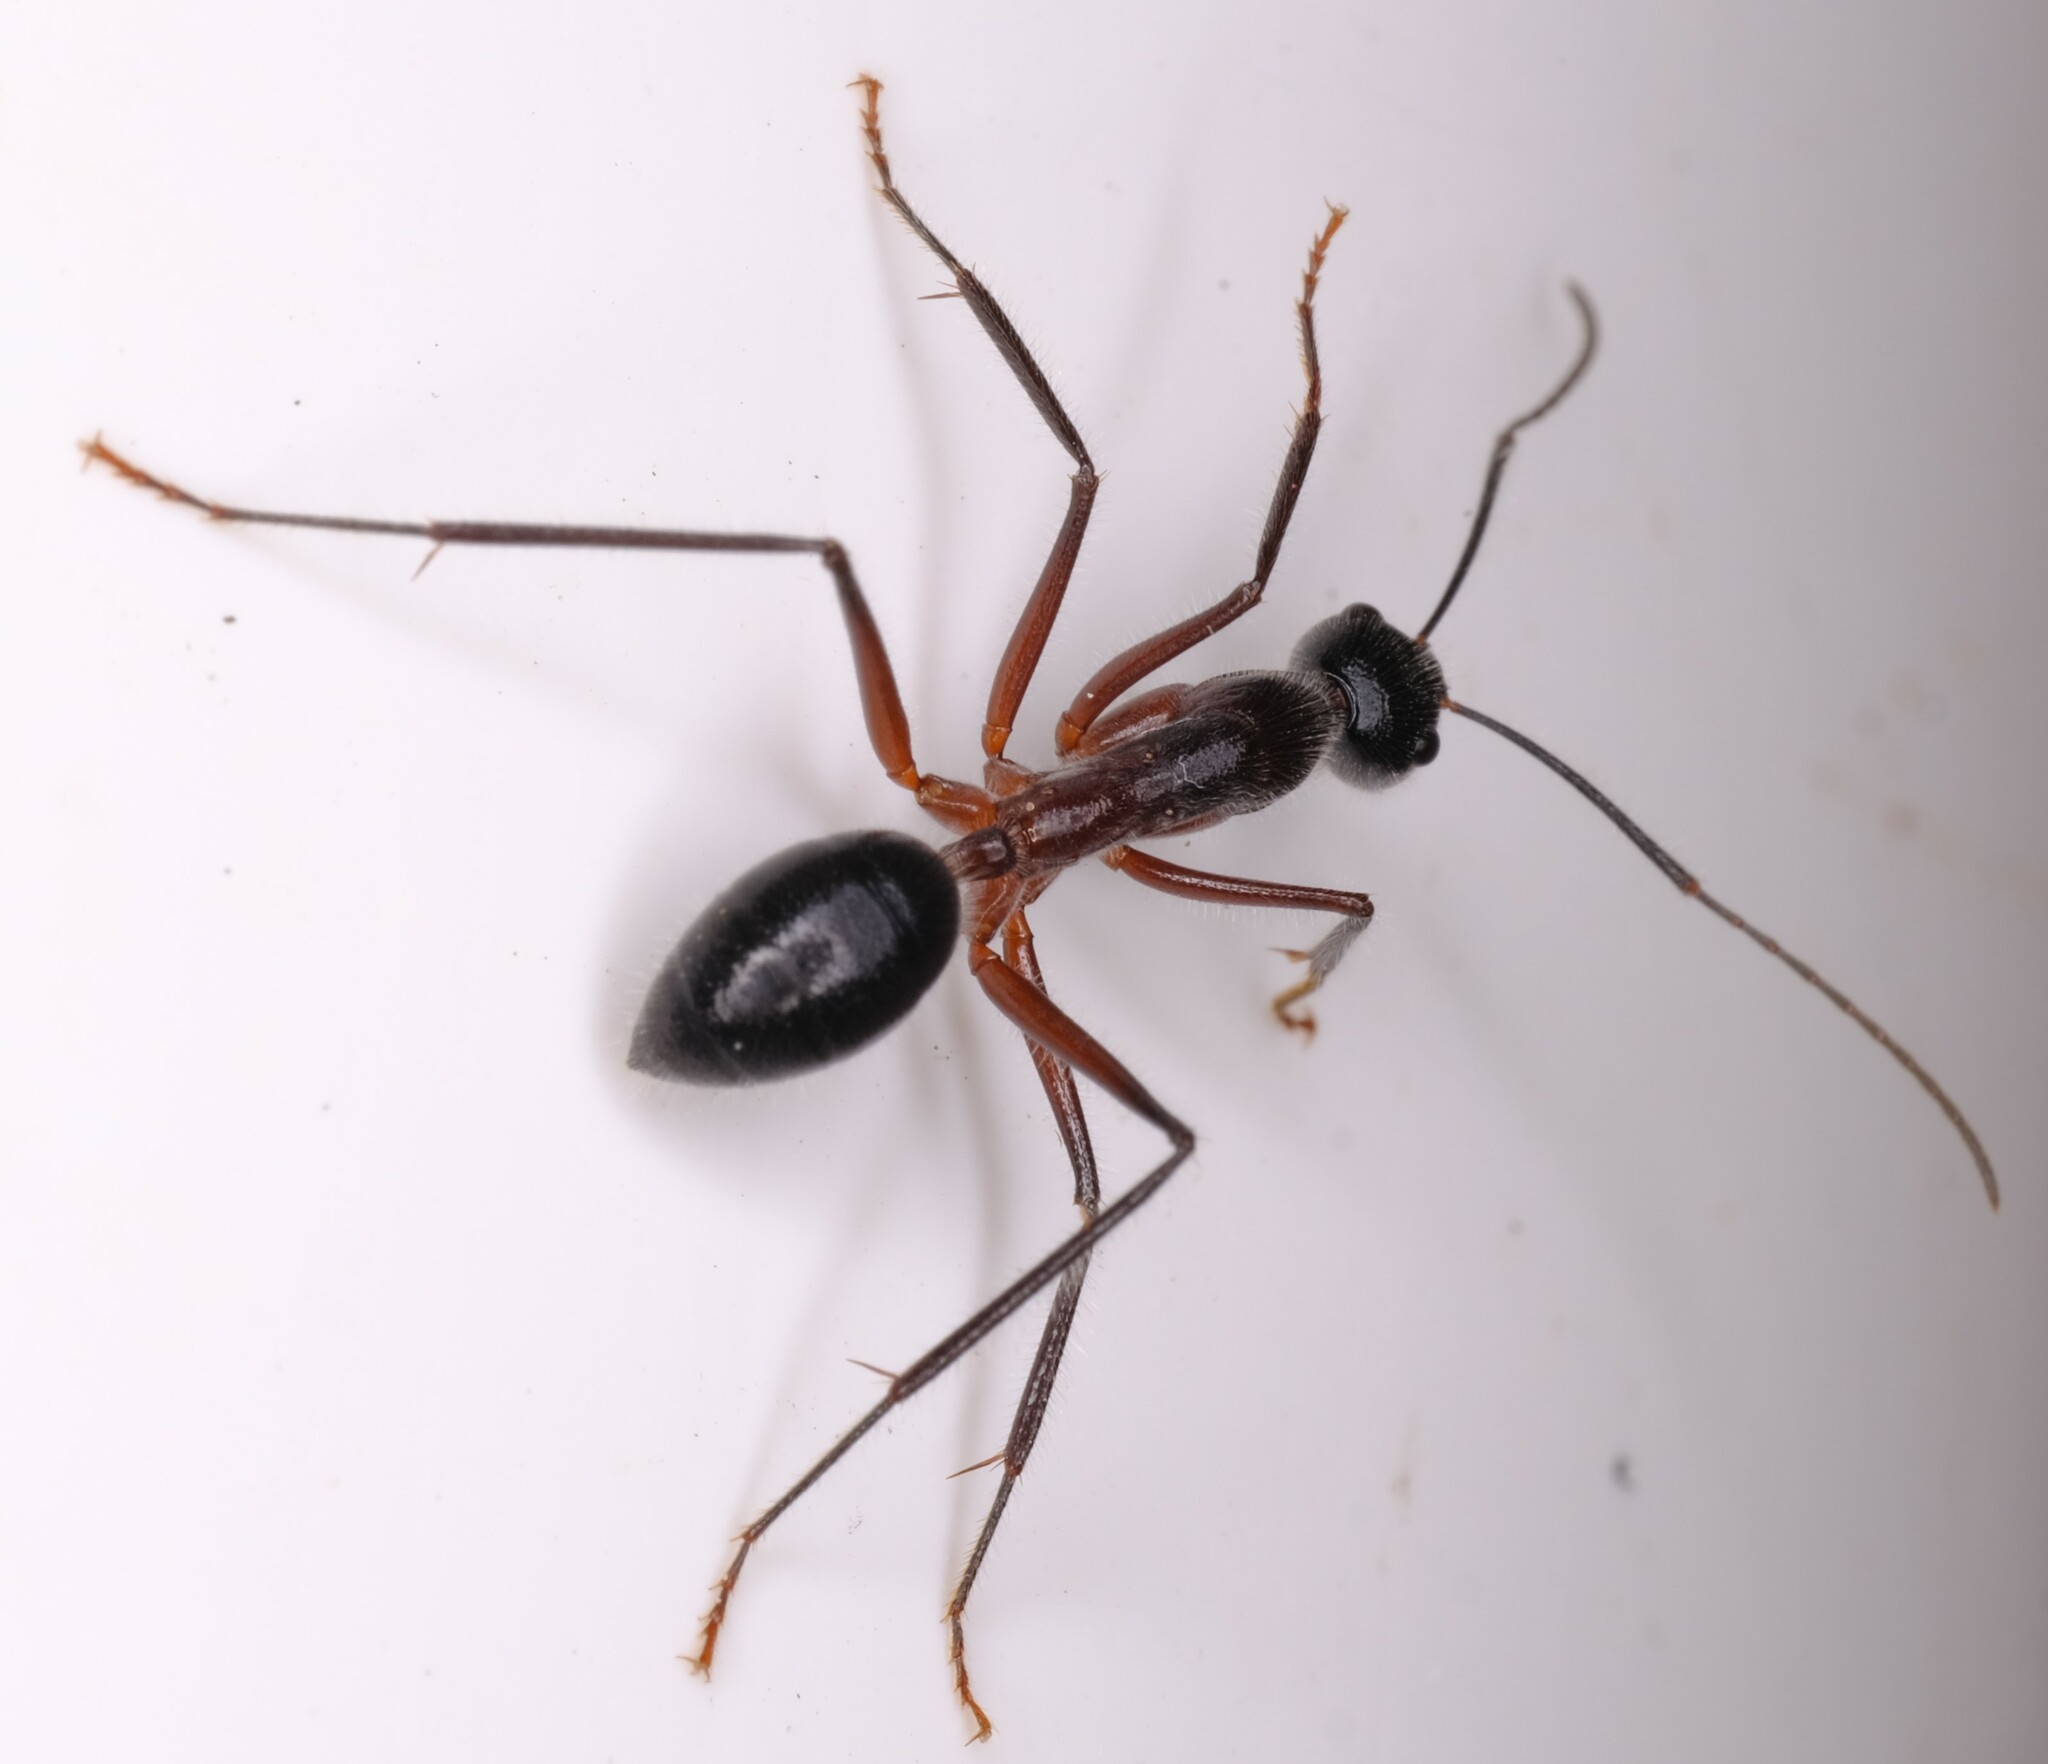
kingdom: Animalia
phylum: Arthropoda
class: Insecta
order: Hymenoptera
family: Formicidae
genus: Camponotus
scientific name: Camponotus intrepidus
